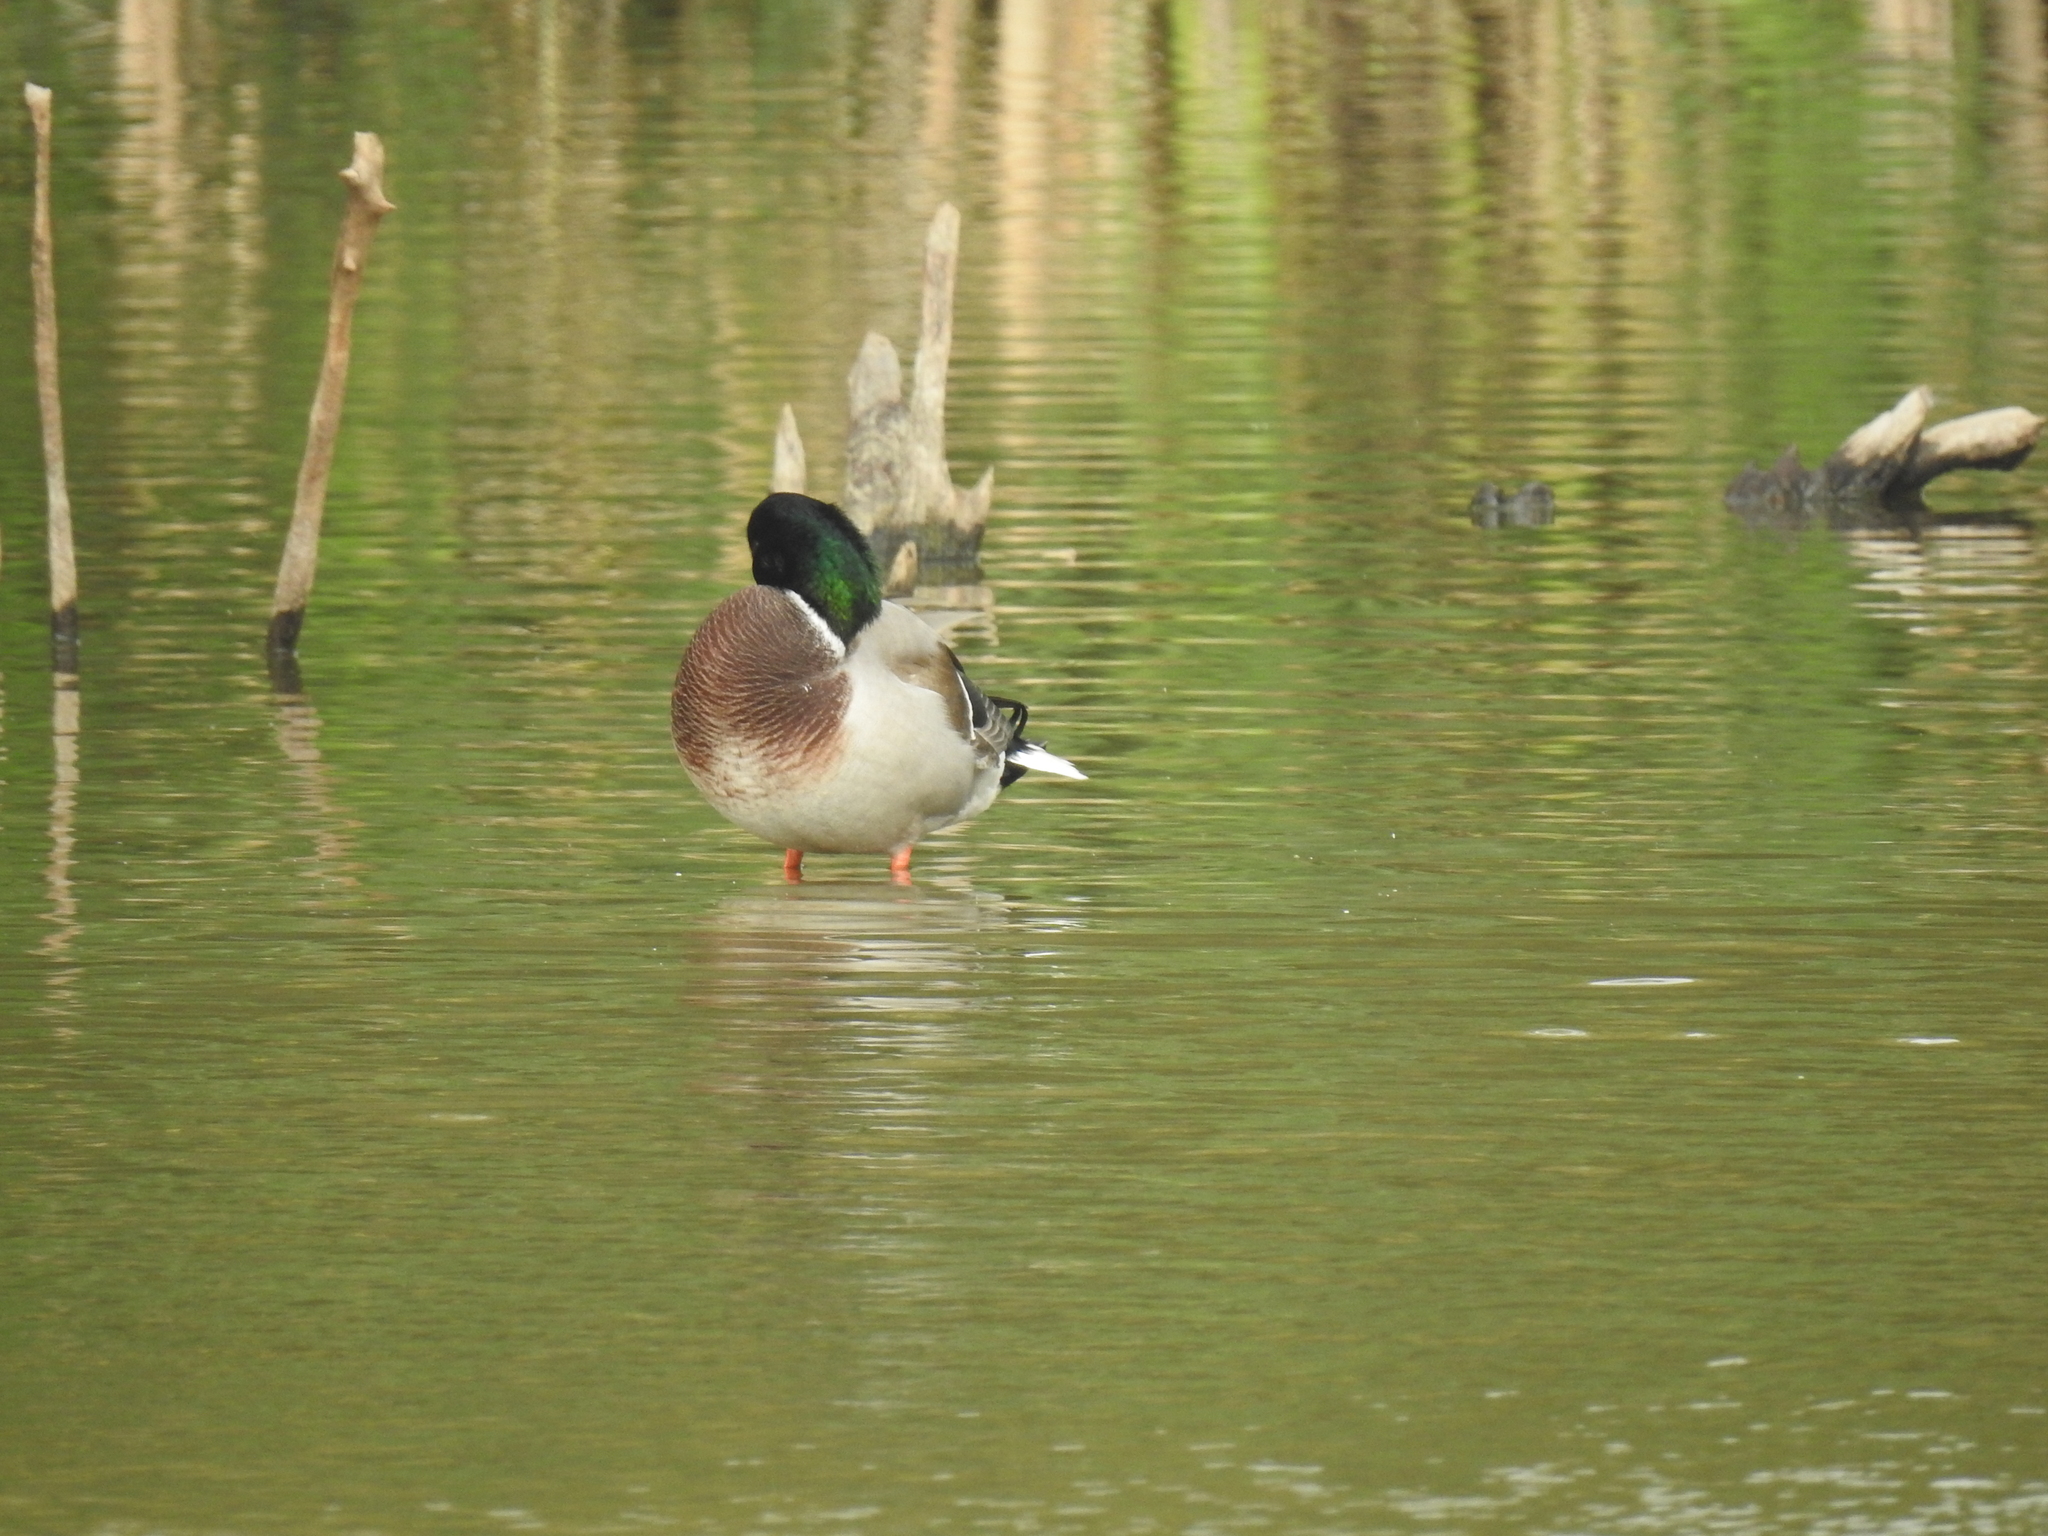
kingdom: Animalia
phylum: Chordata
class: Aves
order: Anseriformes
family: Anatidae
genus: Anas
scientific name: Anas platyrhynchos
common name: Mallard
